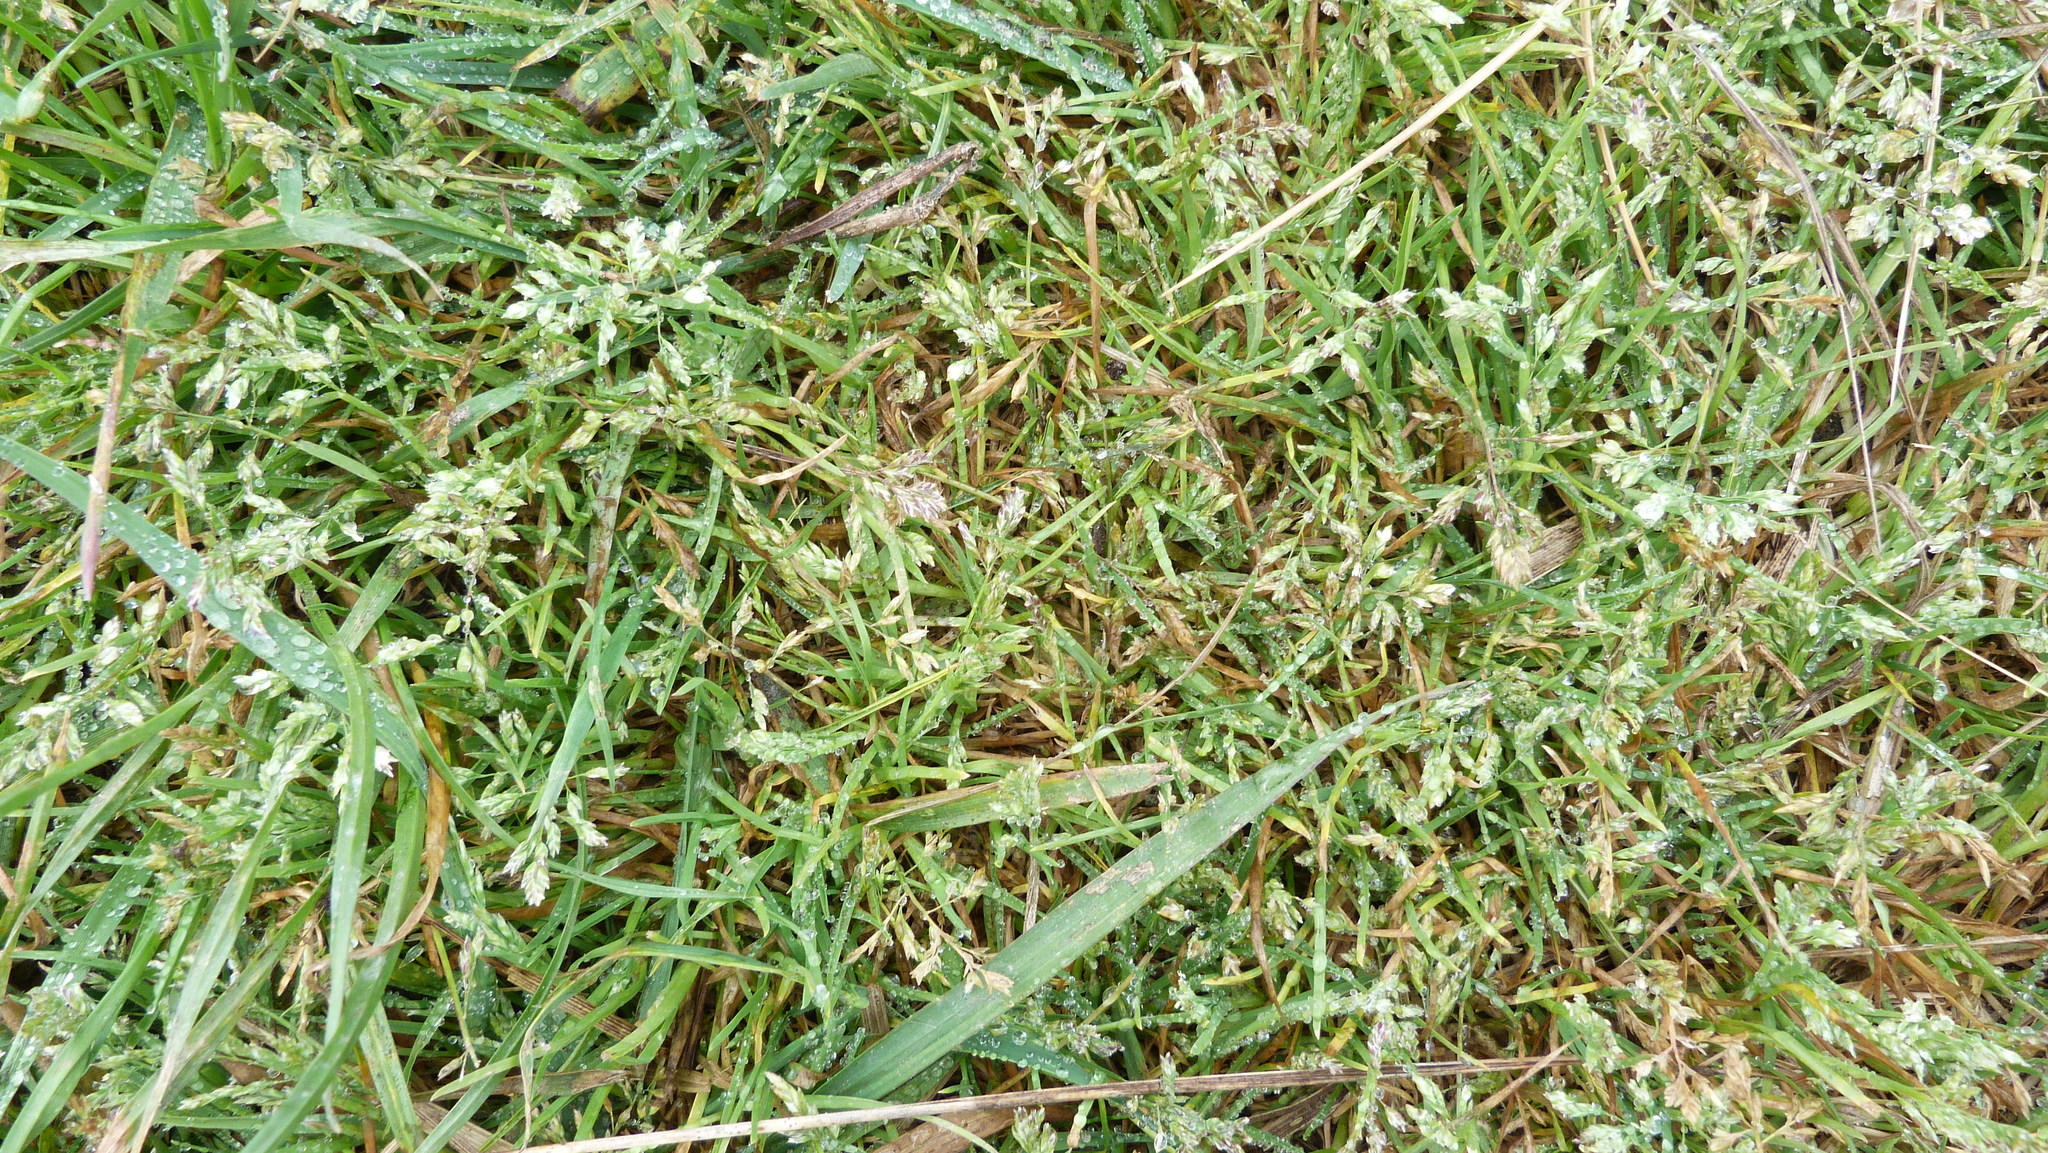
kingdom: Plantae
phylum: Tracheophyta
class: Liliopsida
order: Poales
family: Poaceae
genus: Poa
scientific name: Poa annua
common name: Annual bluegrass
